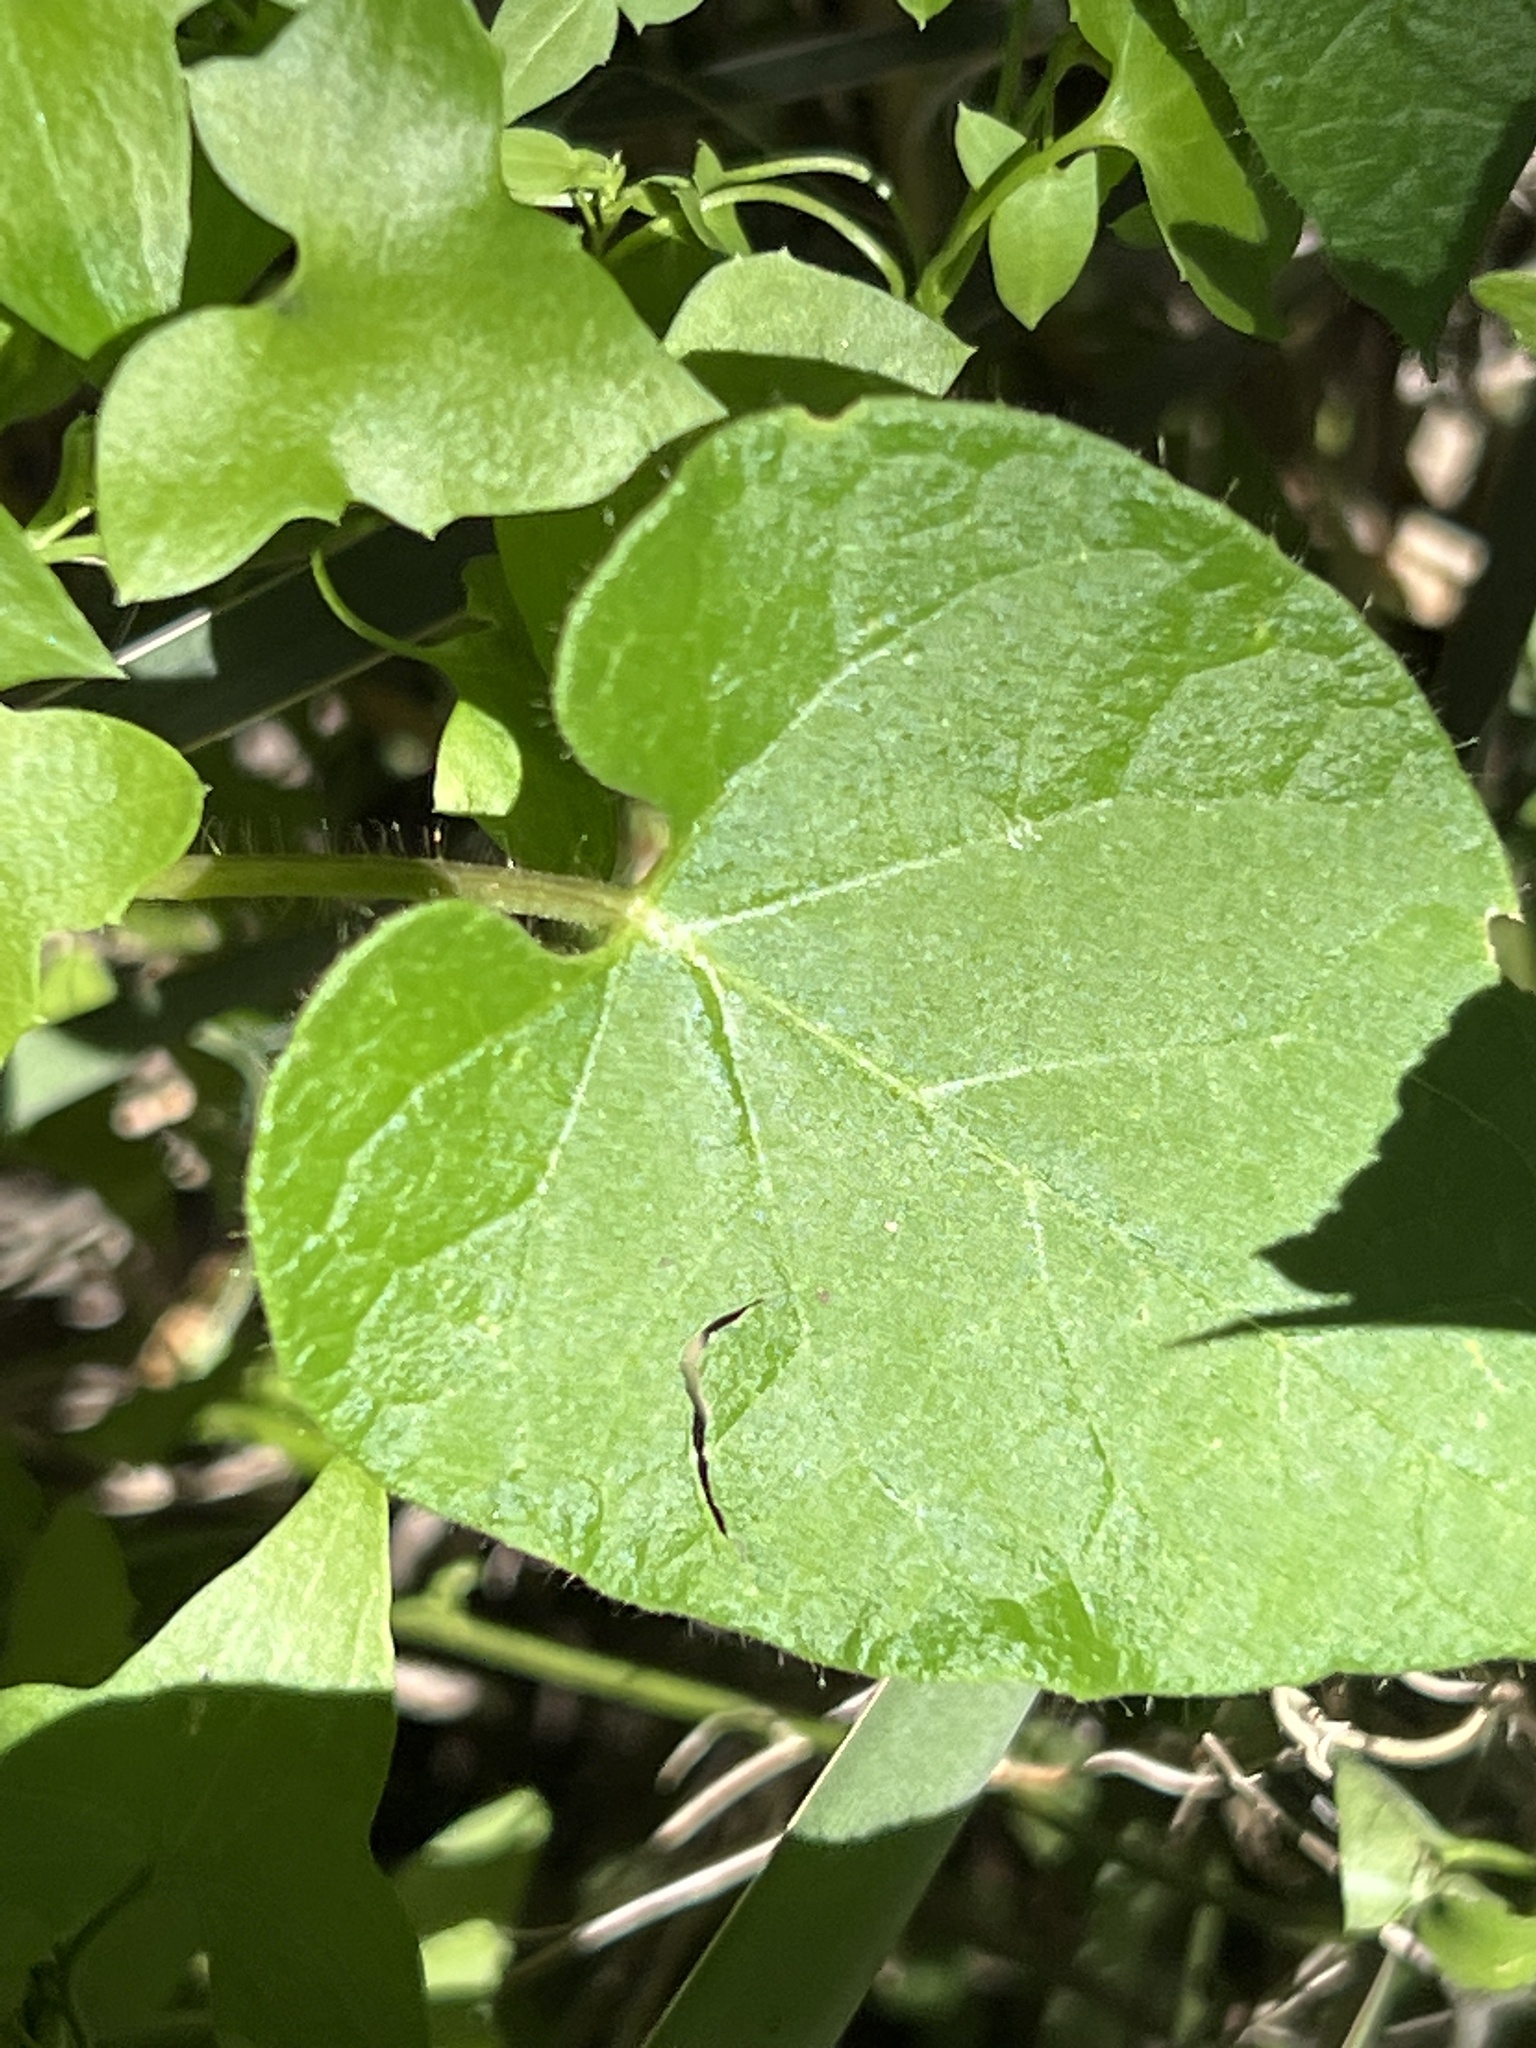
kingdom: Plantae
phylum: Tracheophyta
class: Magnoliopsida
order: Gentianales
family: Apocynaceae
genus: Dictyanthus
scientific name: Dictyanthus reticulatus
